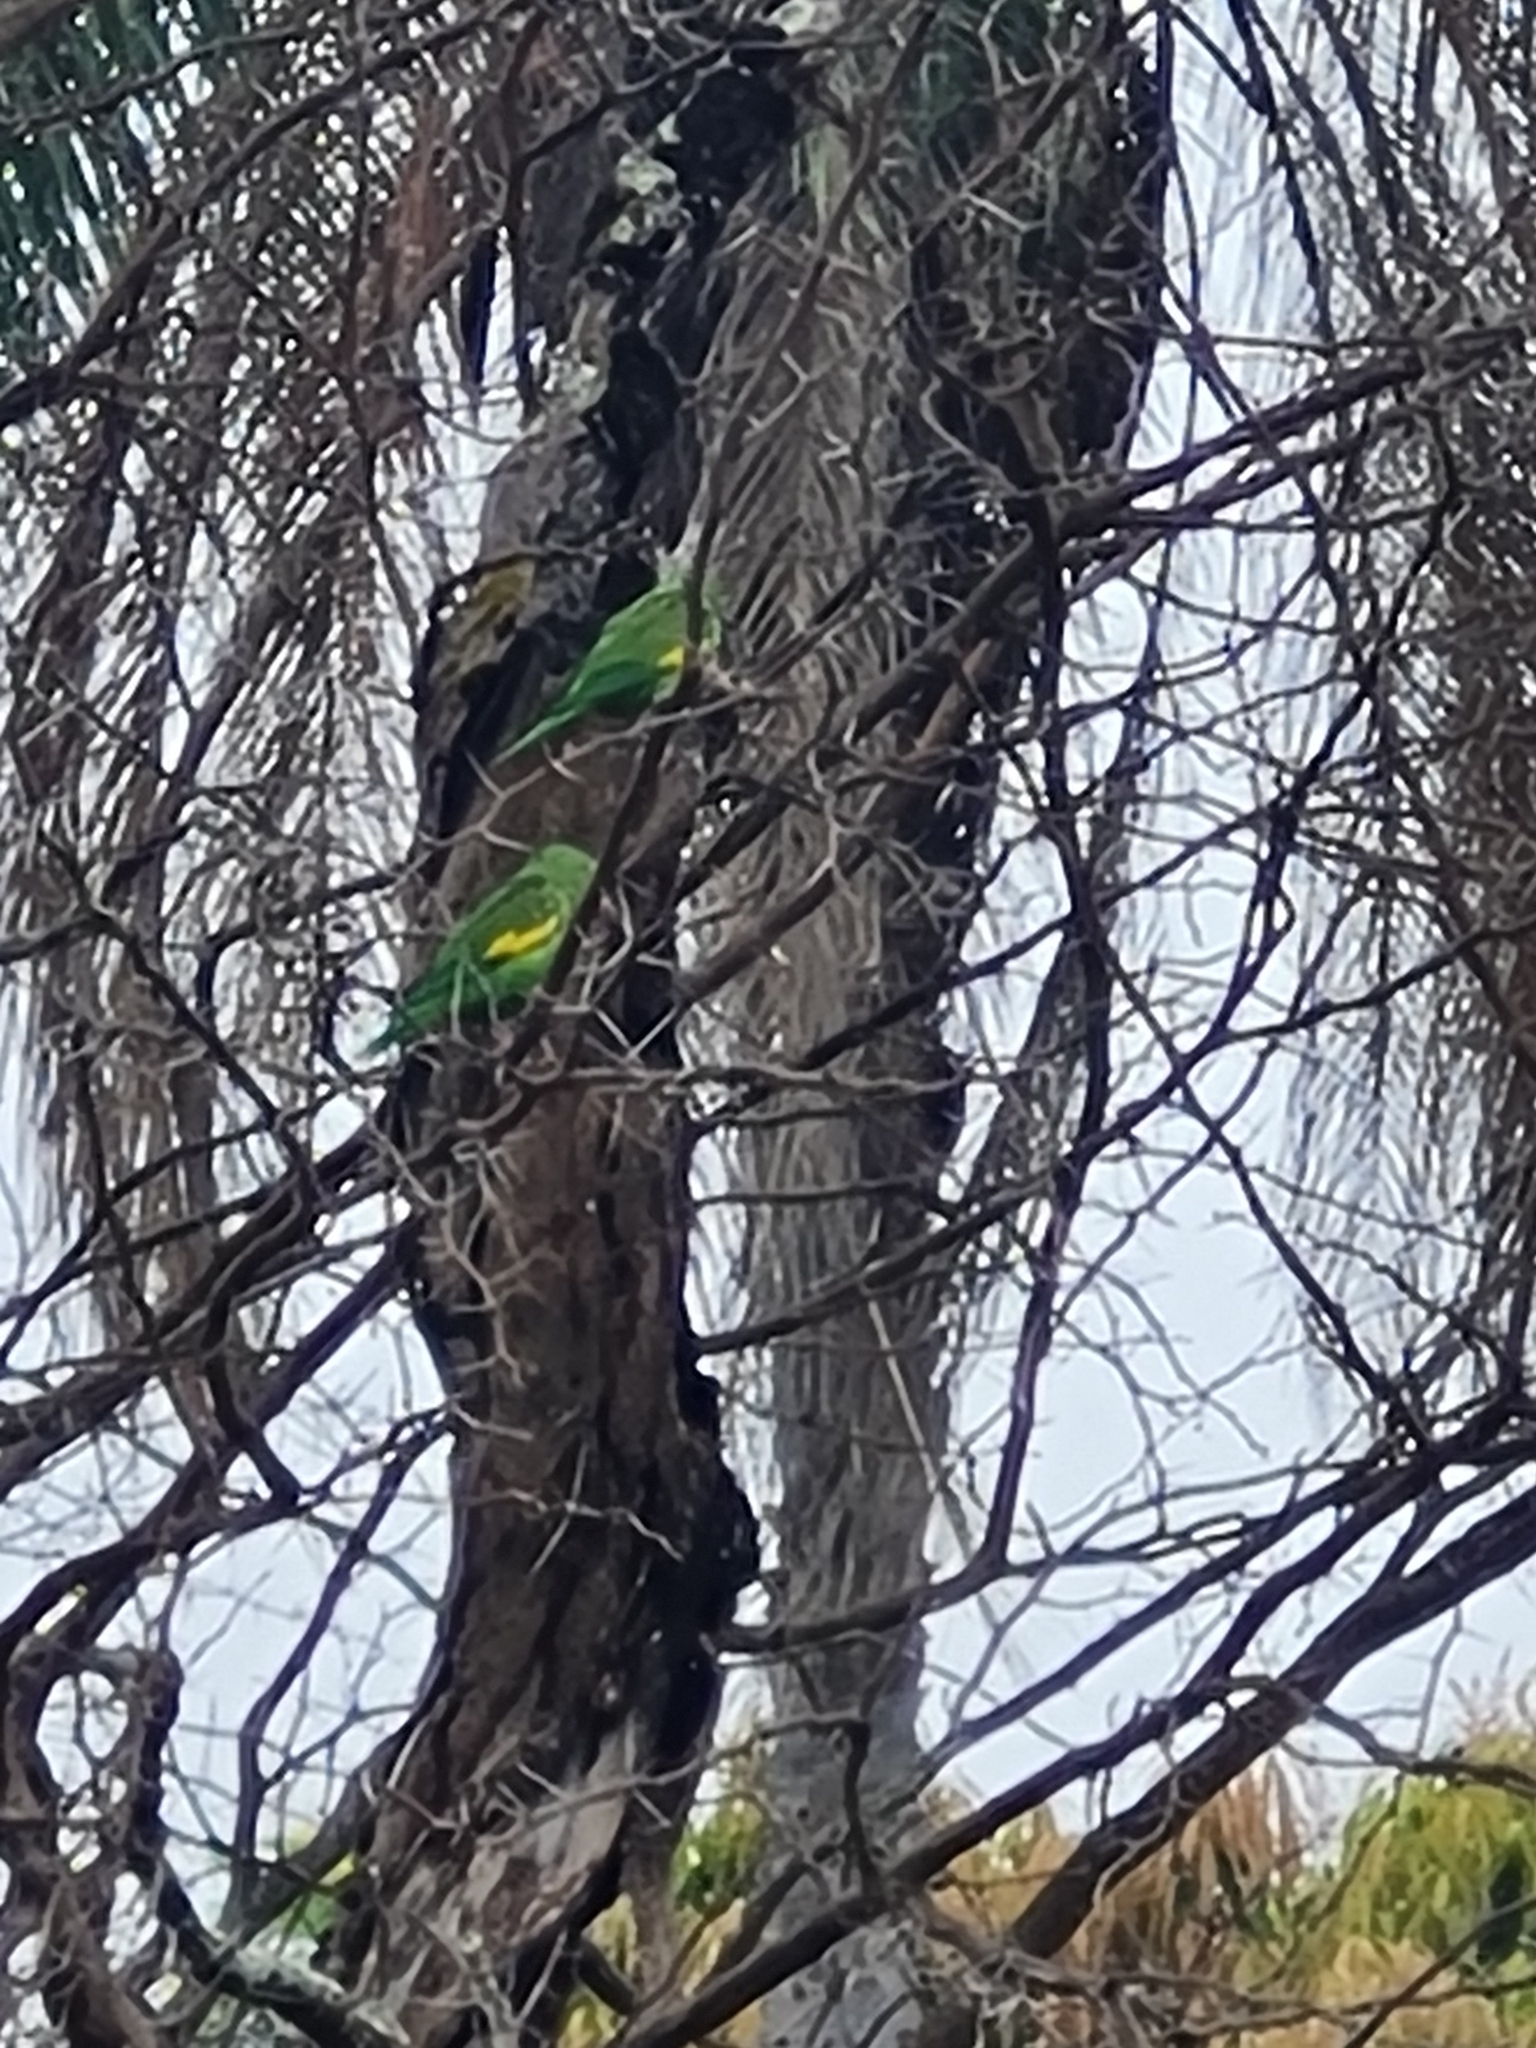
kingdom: Animalia
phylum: Chordata
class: Aves
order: Psittaciformes
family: Psittacidae
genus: Brotogeris
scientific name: Brotogeris chiriri
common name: Yellow-chevroned parakeet
